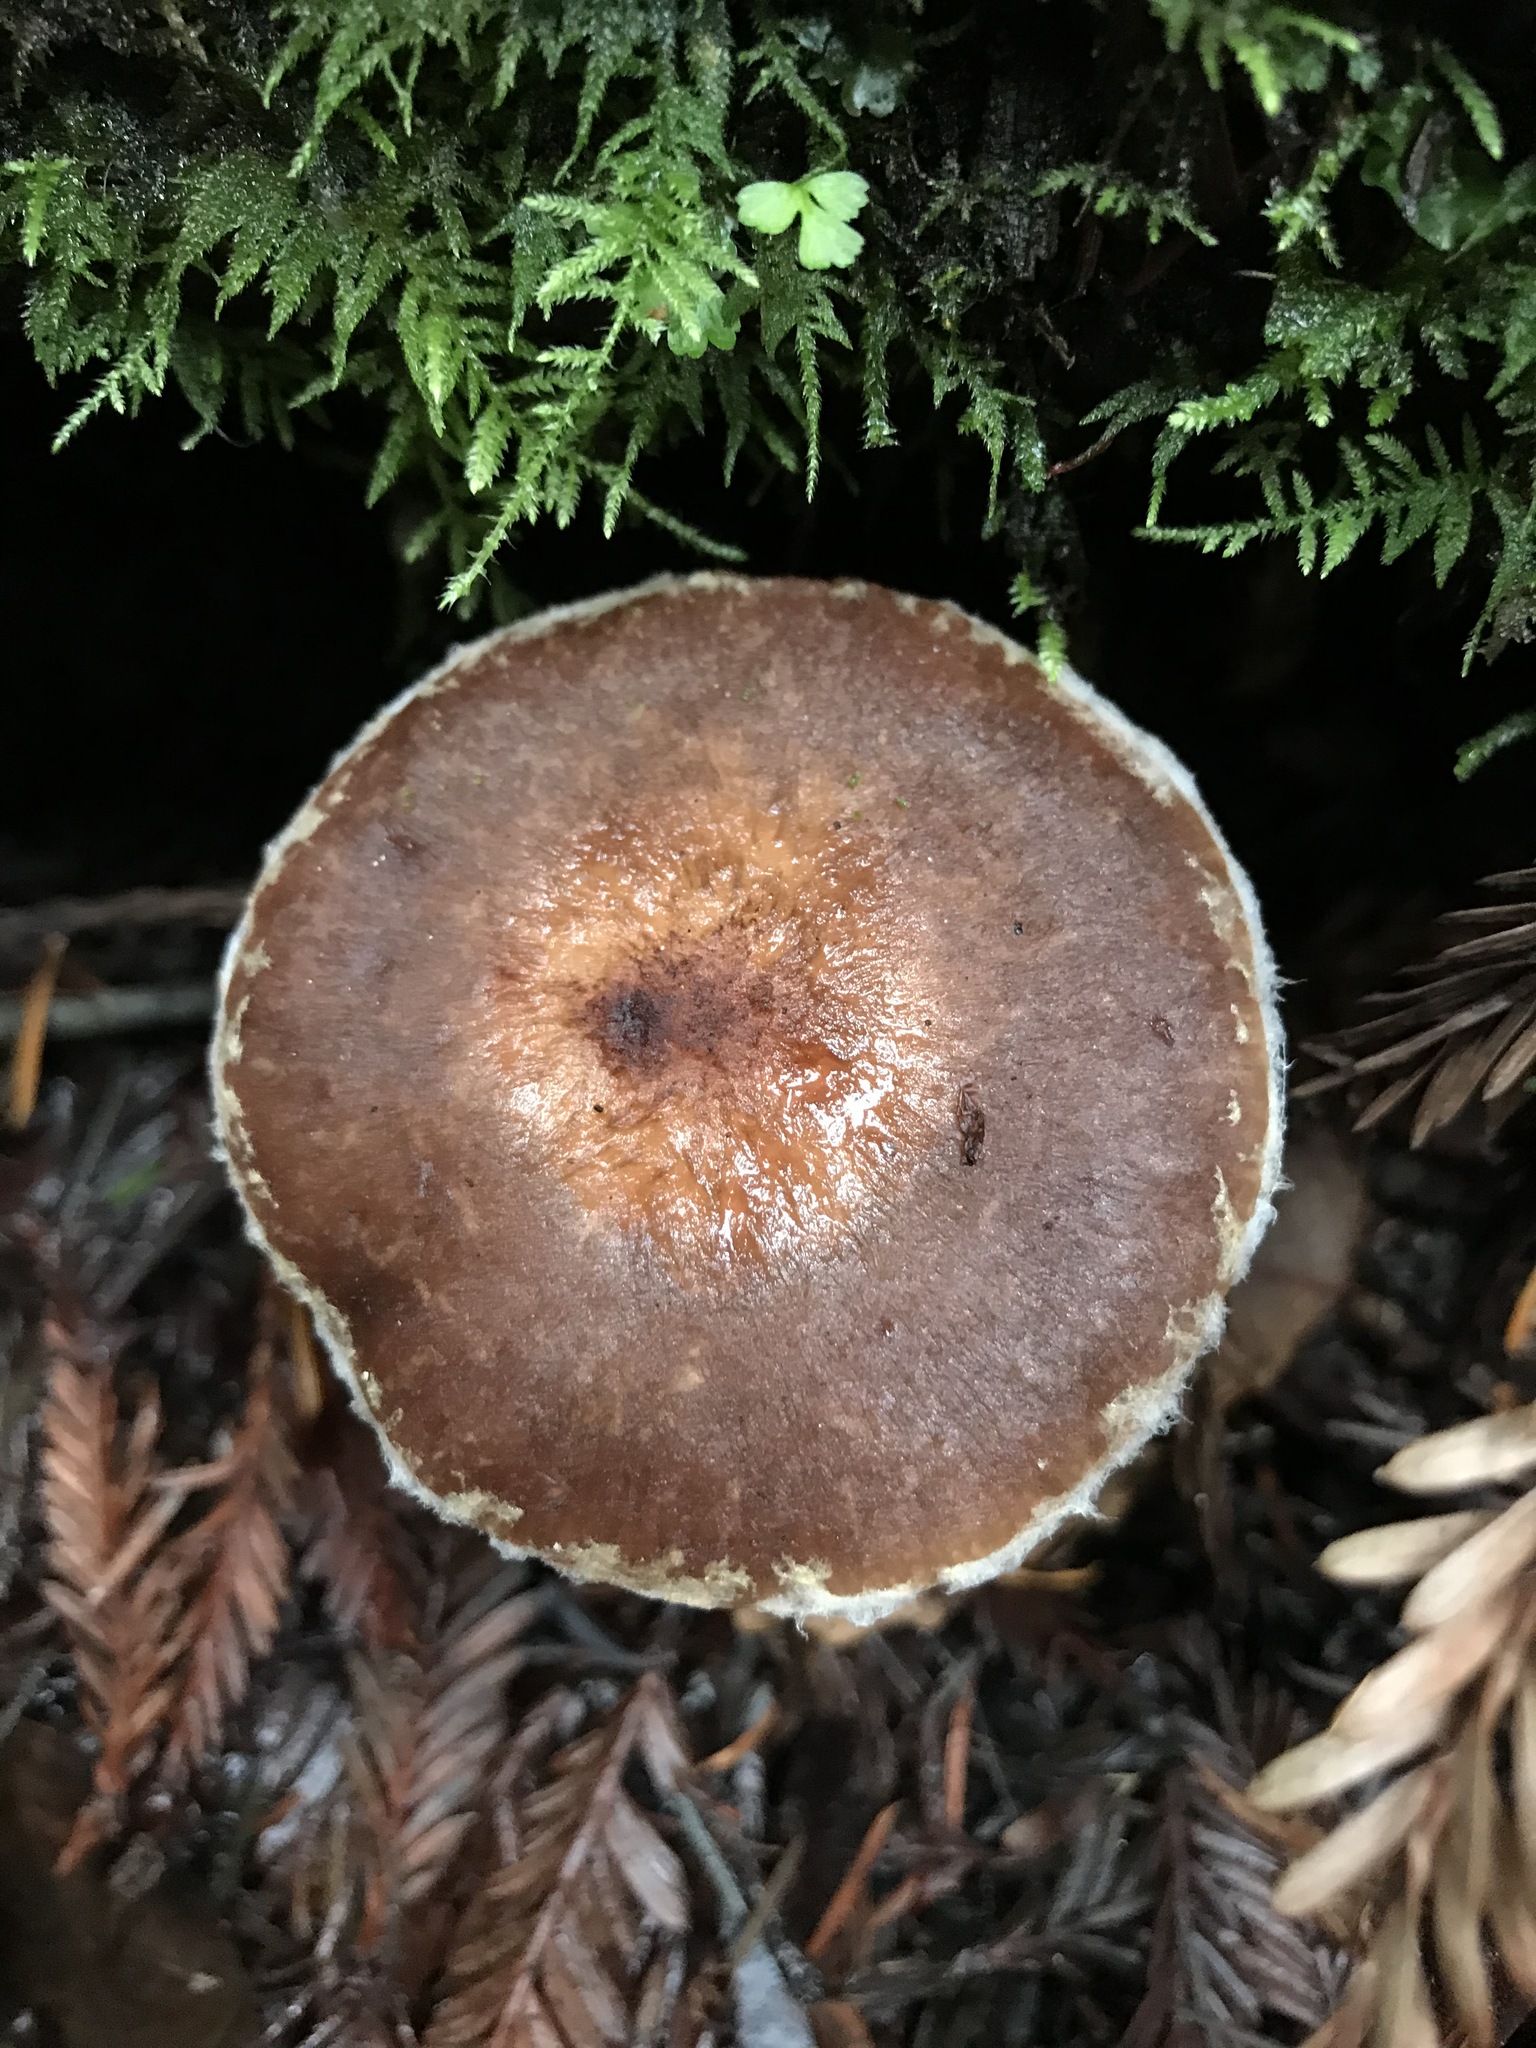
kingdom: Fungi
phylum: Basidiomycota
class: Agaricomycetes
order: Agaricales
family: Physalacriaceae
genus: Armillaria
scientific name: Armillaria sinapina
